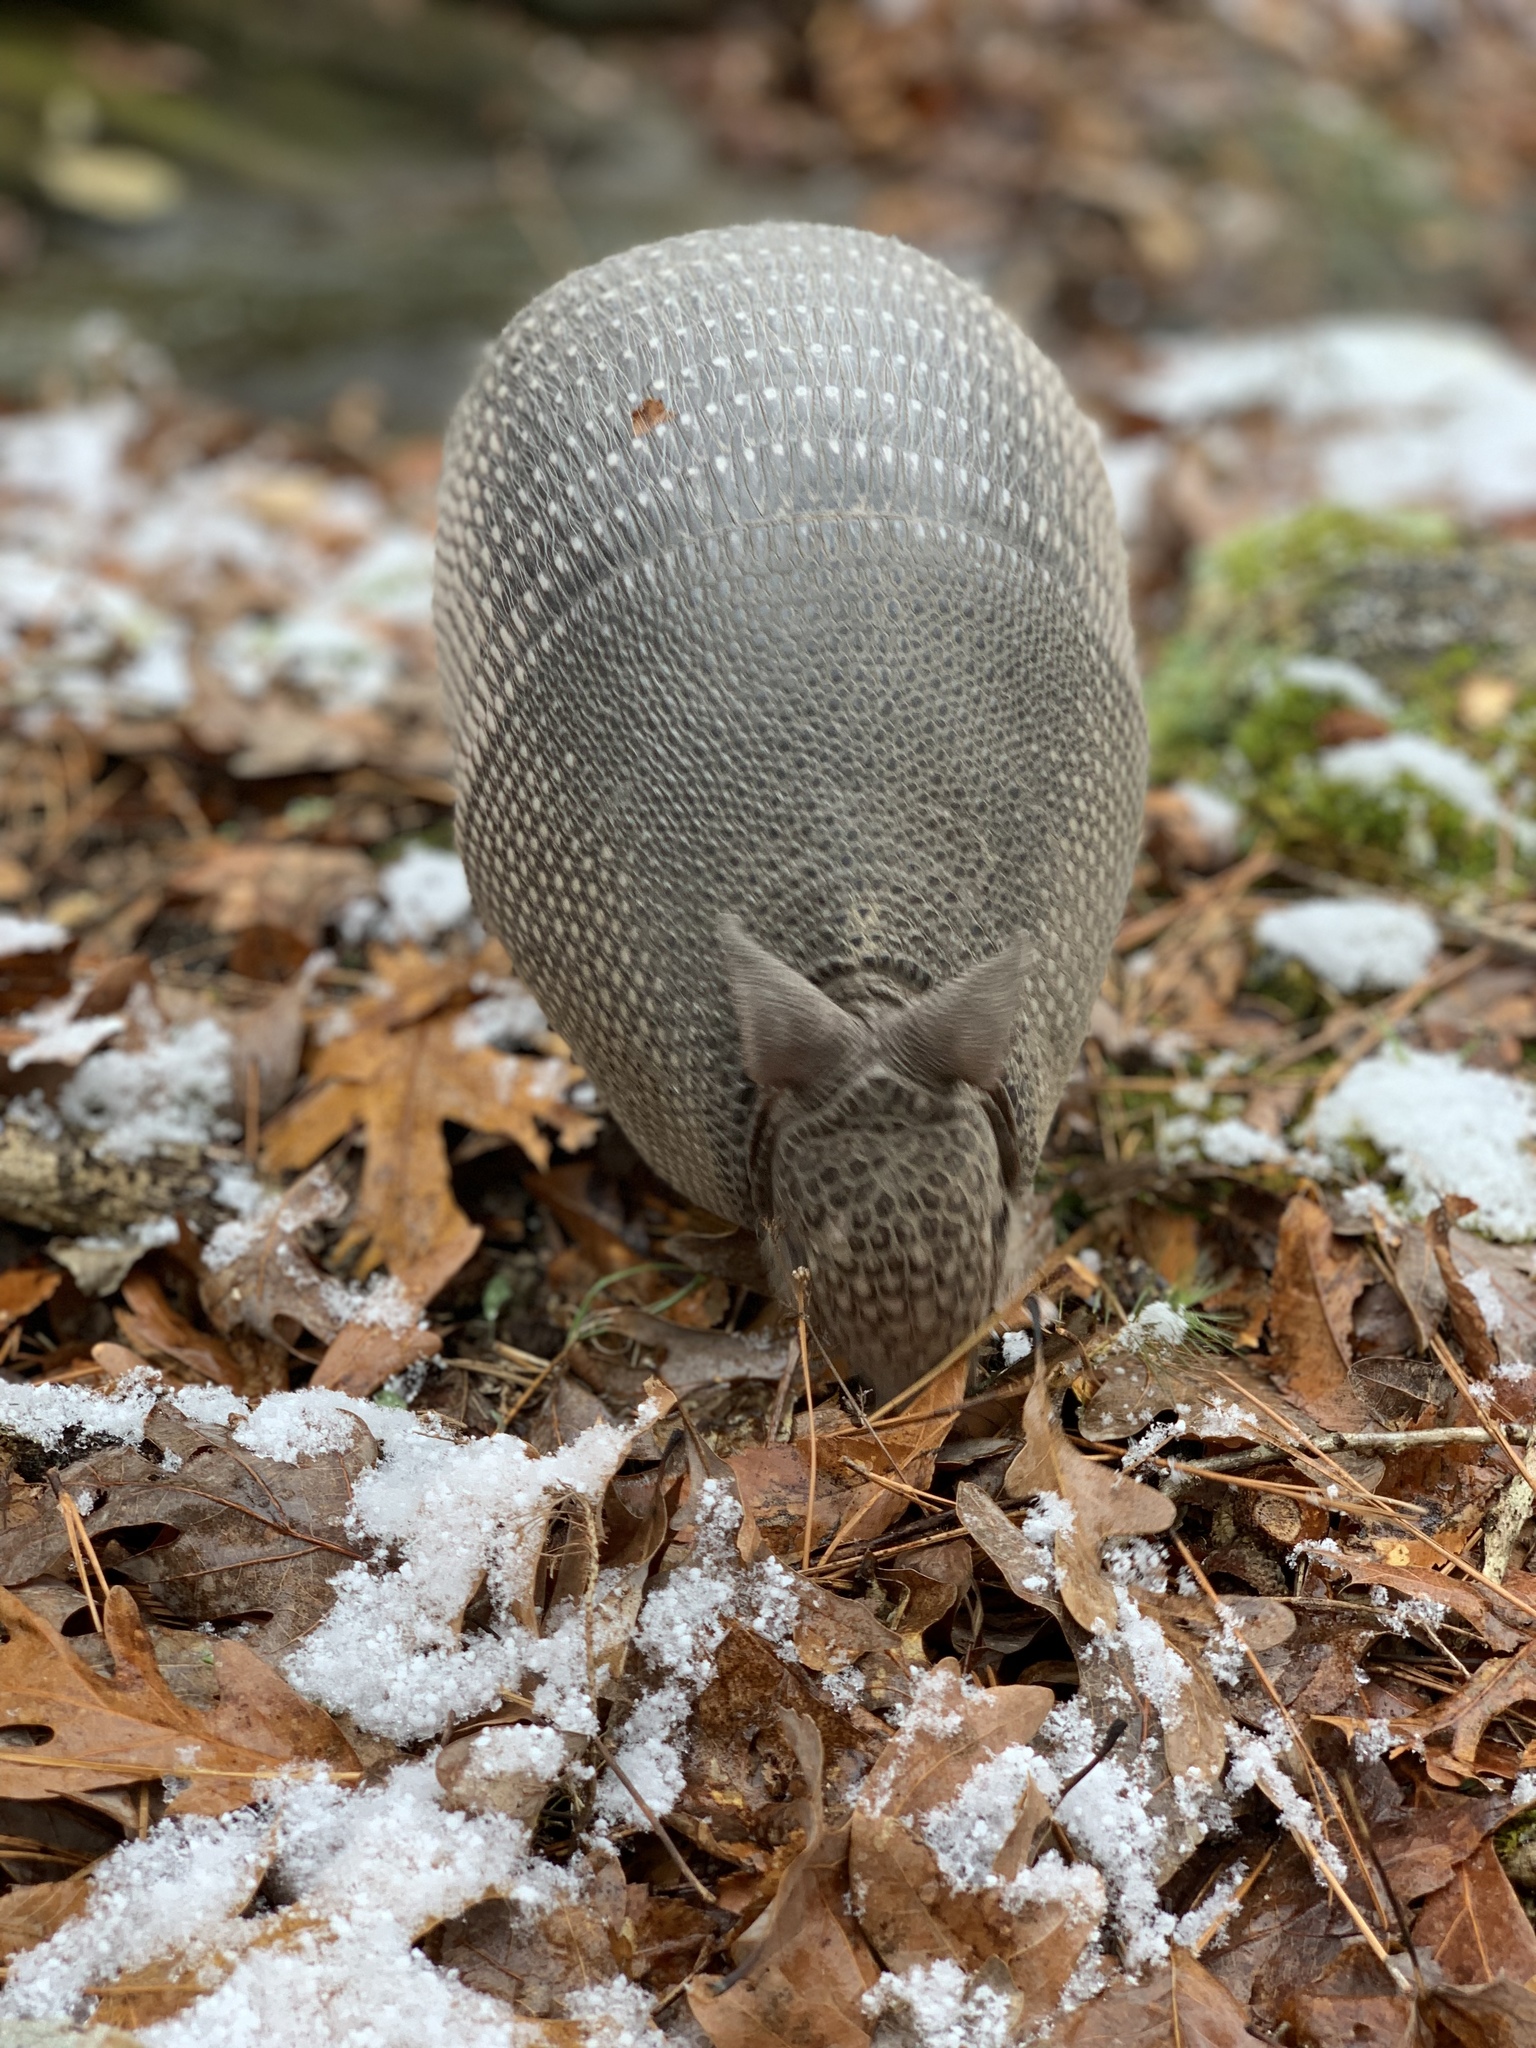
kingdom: Animalia
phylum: Chordata
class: Mammalia
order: Cingulata
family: Dasypodidae
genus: Dasypus
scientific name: Dasypus novemcinctus
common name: Nine-banded armadillo
